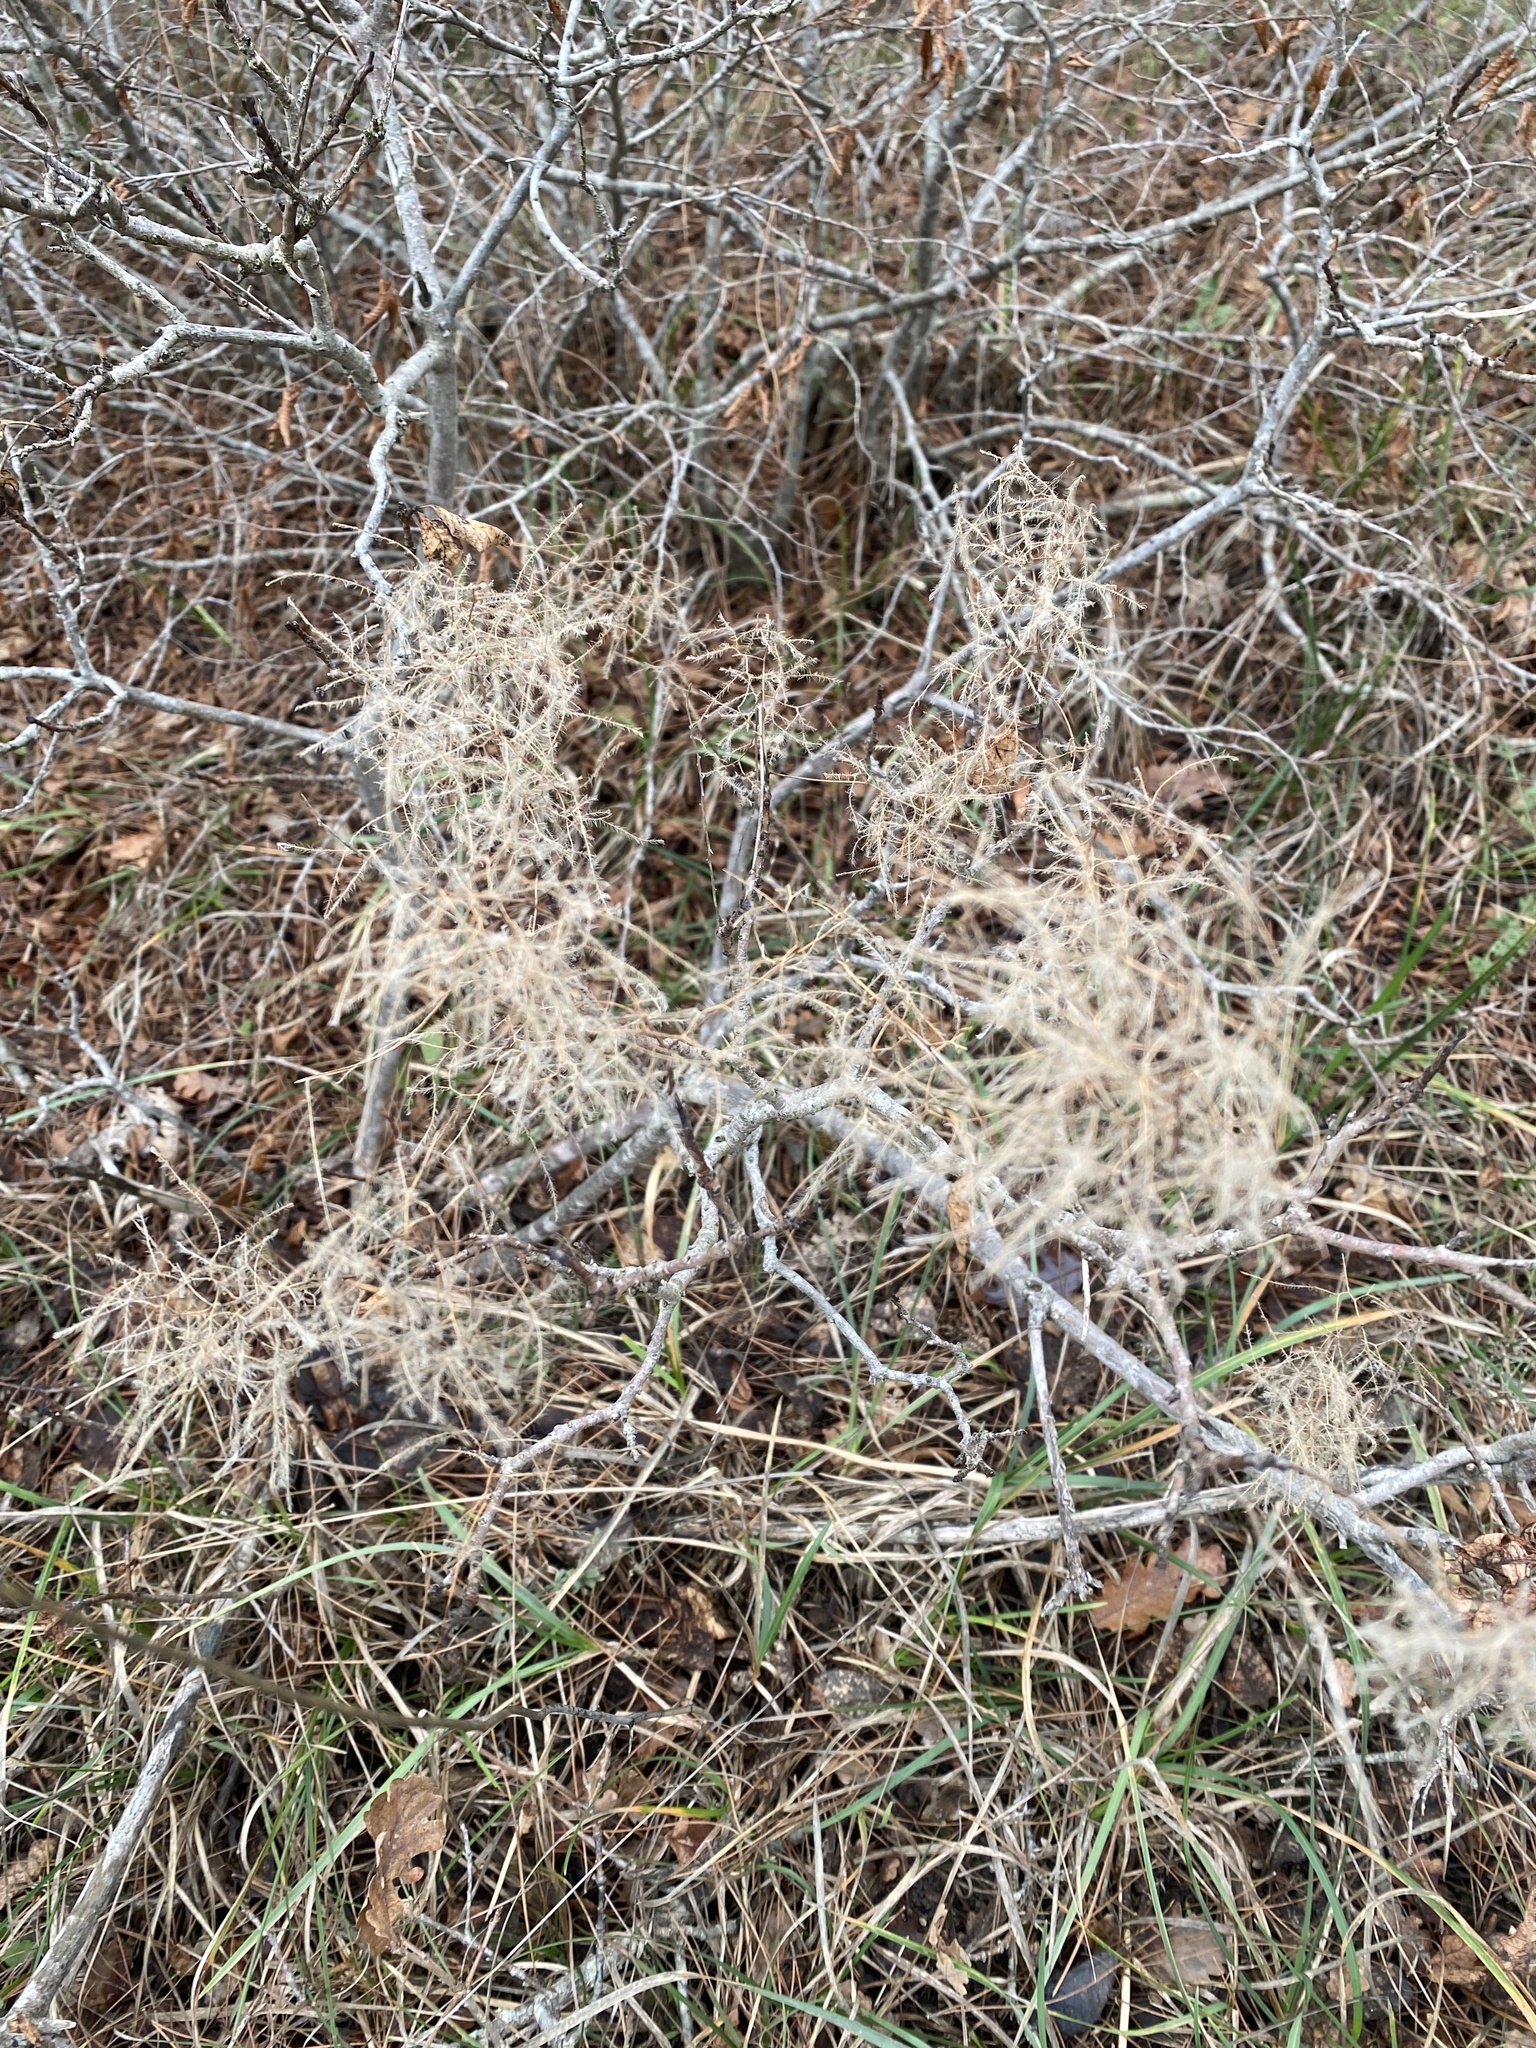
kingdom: Plantae
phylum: Tracheophyta
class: Magnoliopsida
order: Sapindales
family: Anacardiaceae
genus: Cotinus
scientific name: Cotinus coggygria
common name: Smoke-tree
